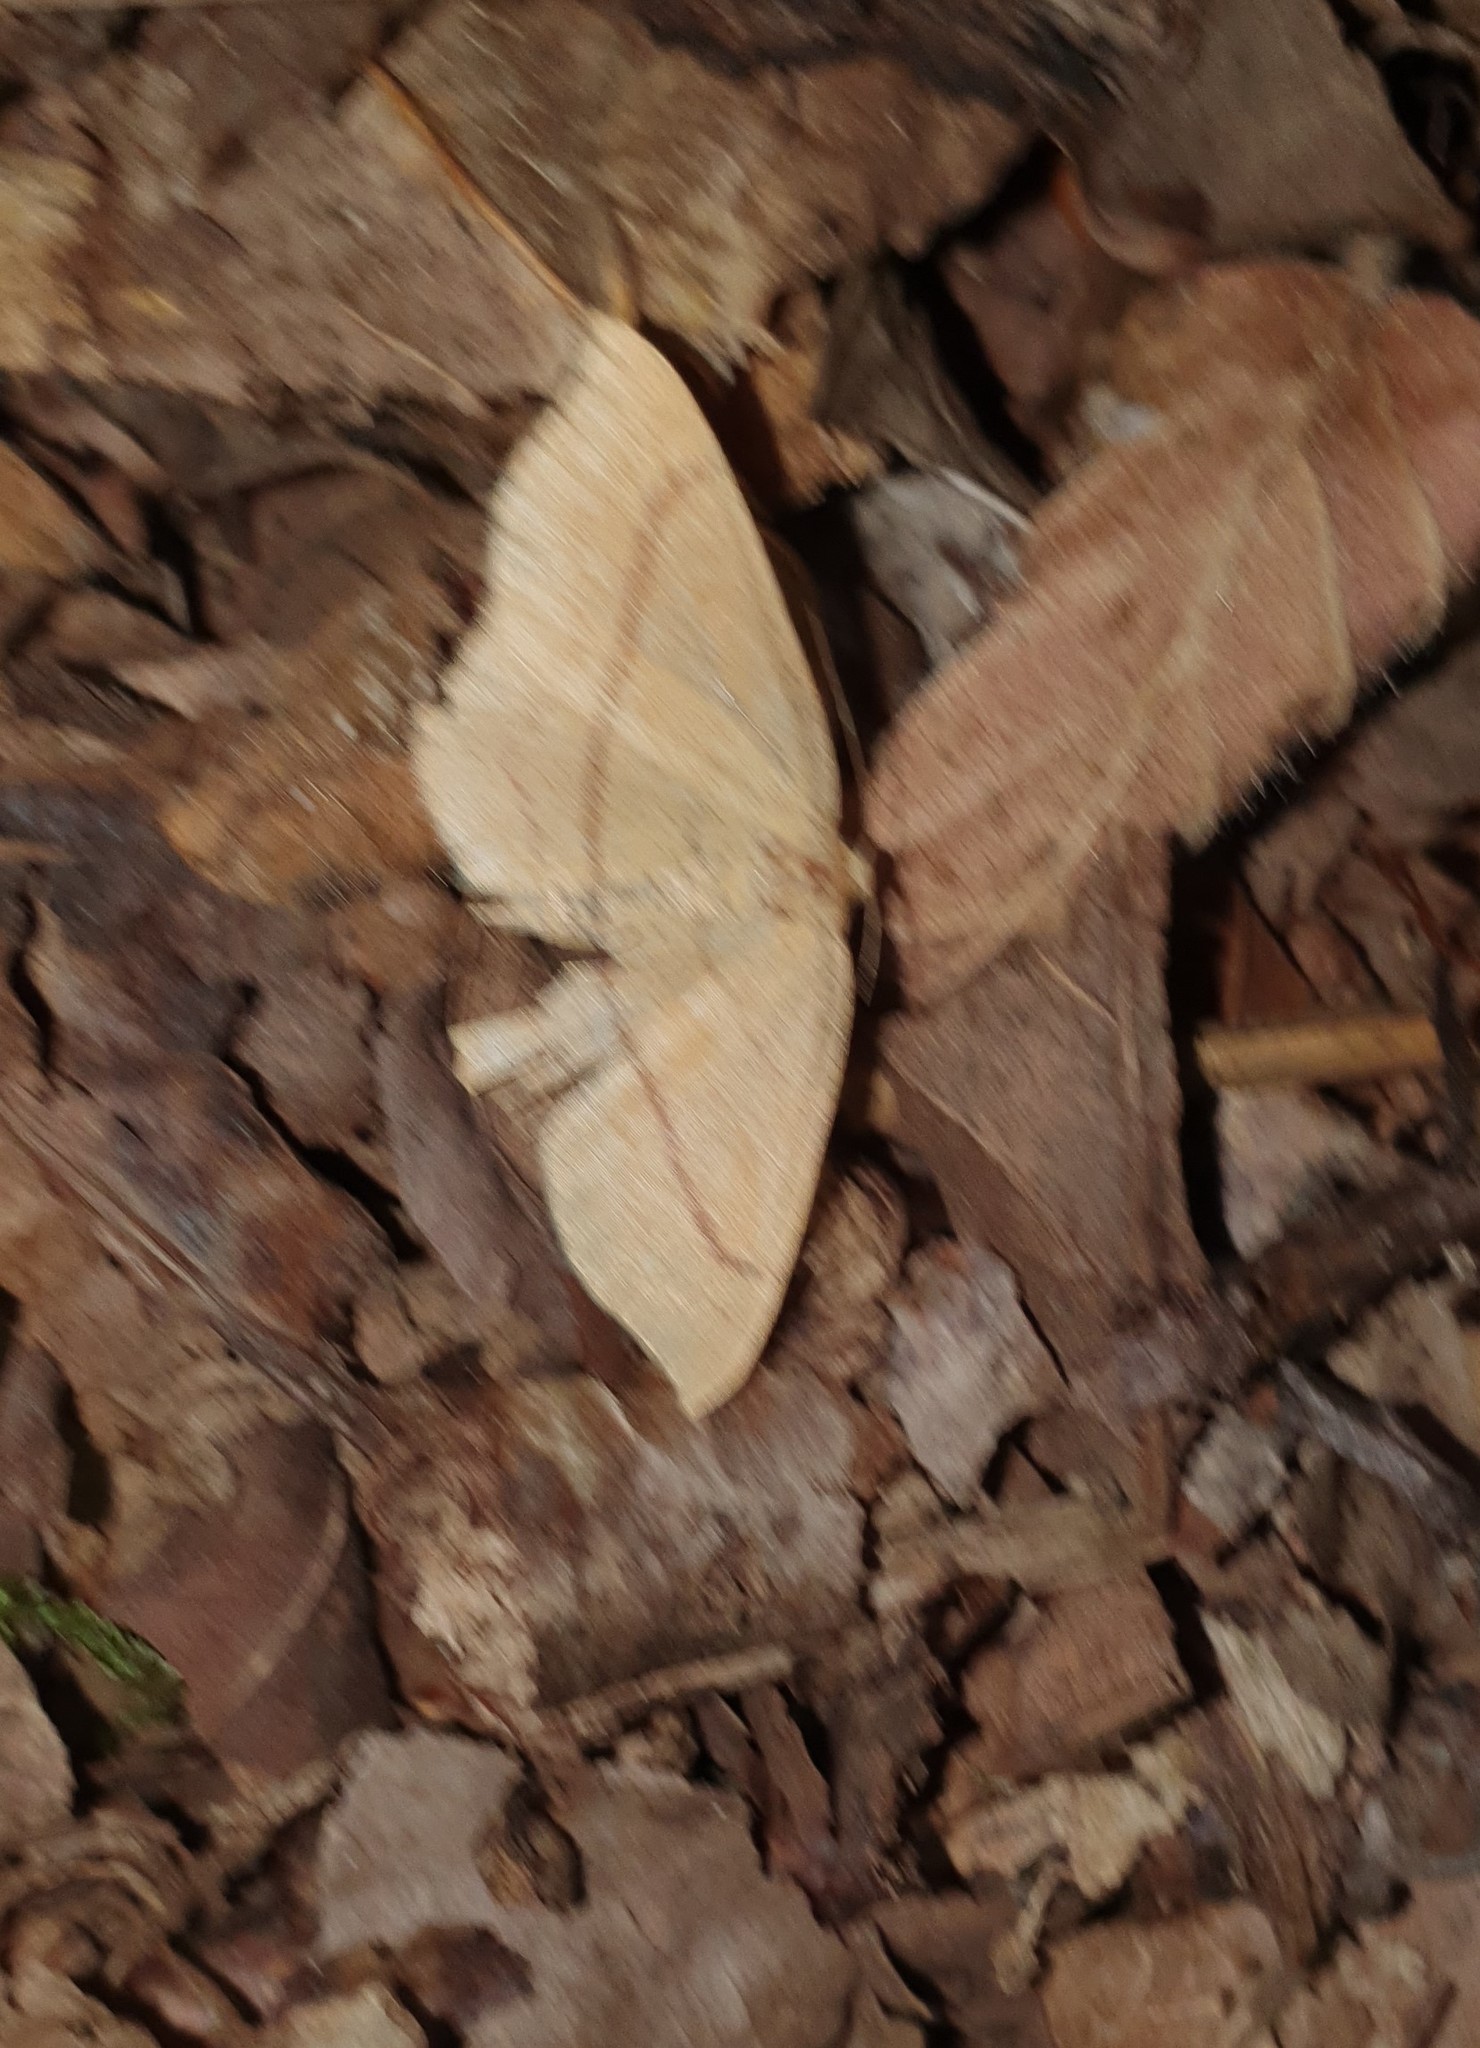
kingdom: Animalia
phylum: Arthropoda
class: Insecta
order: Lepidoptera
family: Geometridae
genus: Cyclophora
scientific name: Cyclophora linearia
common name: Clay triple-lines
